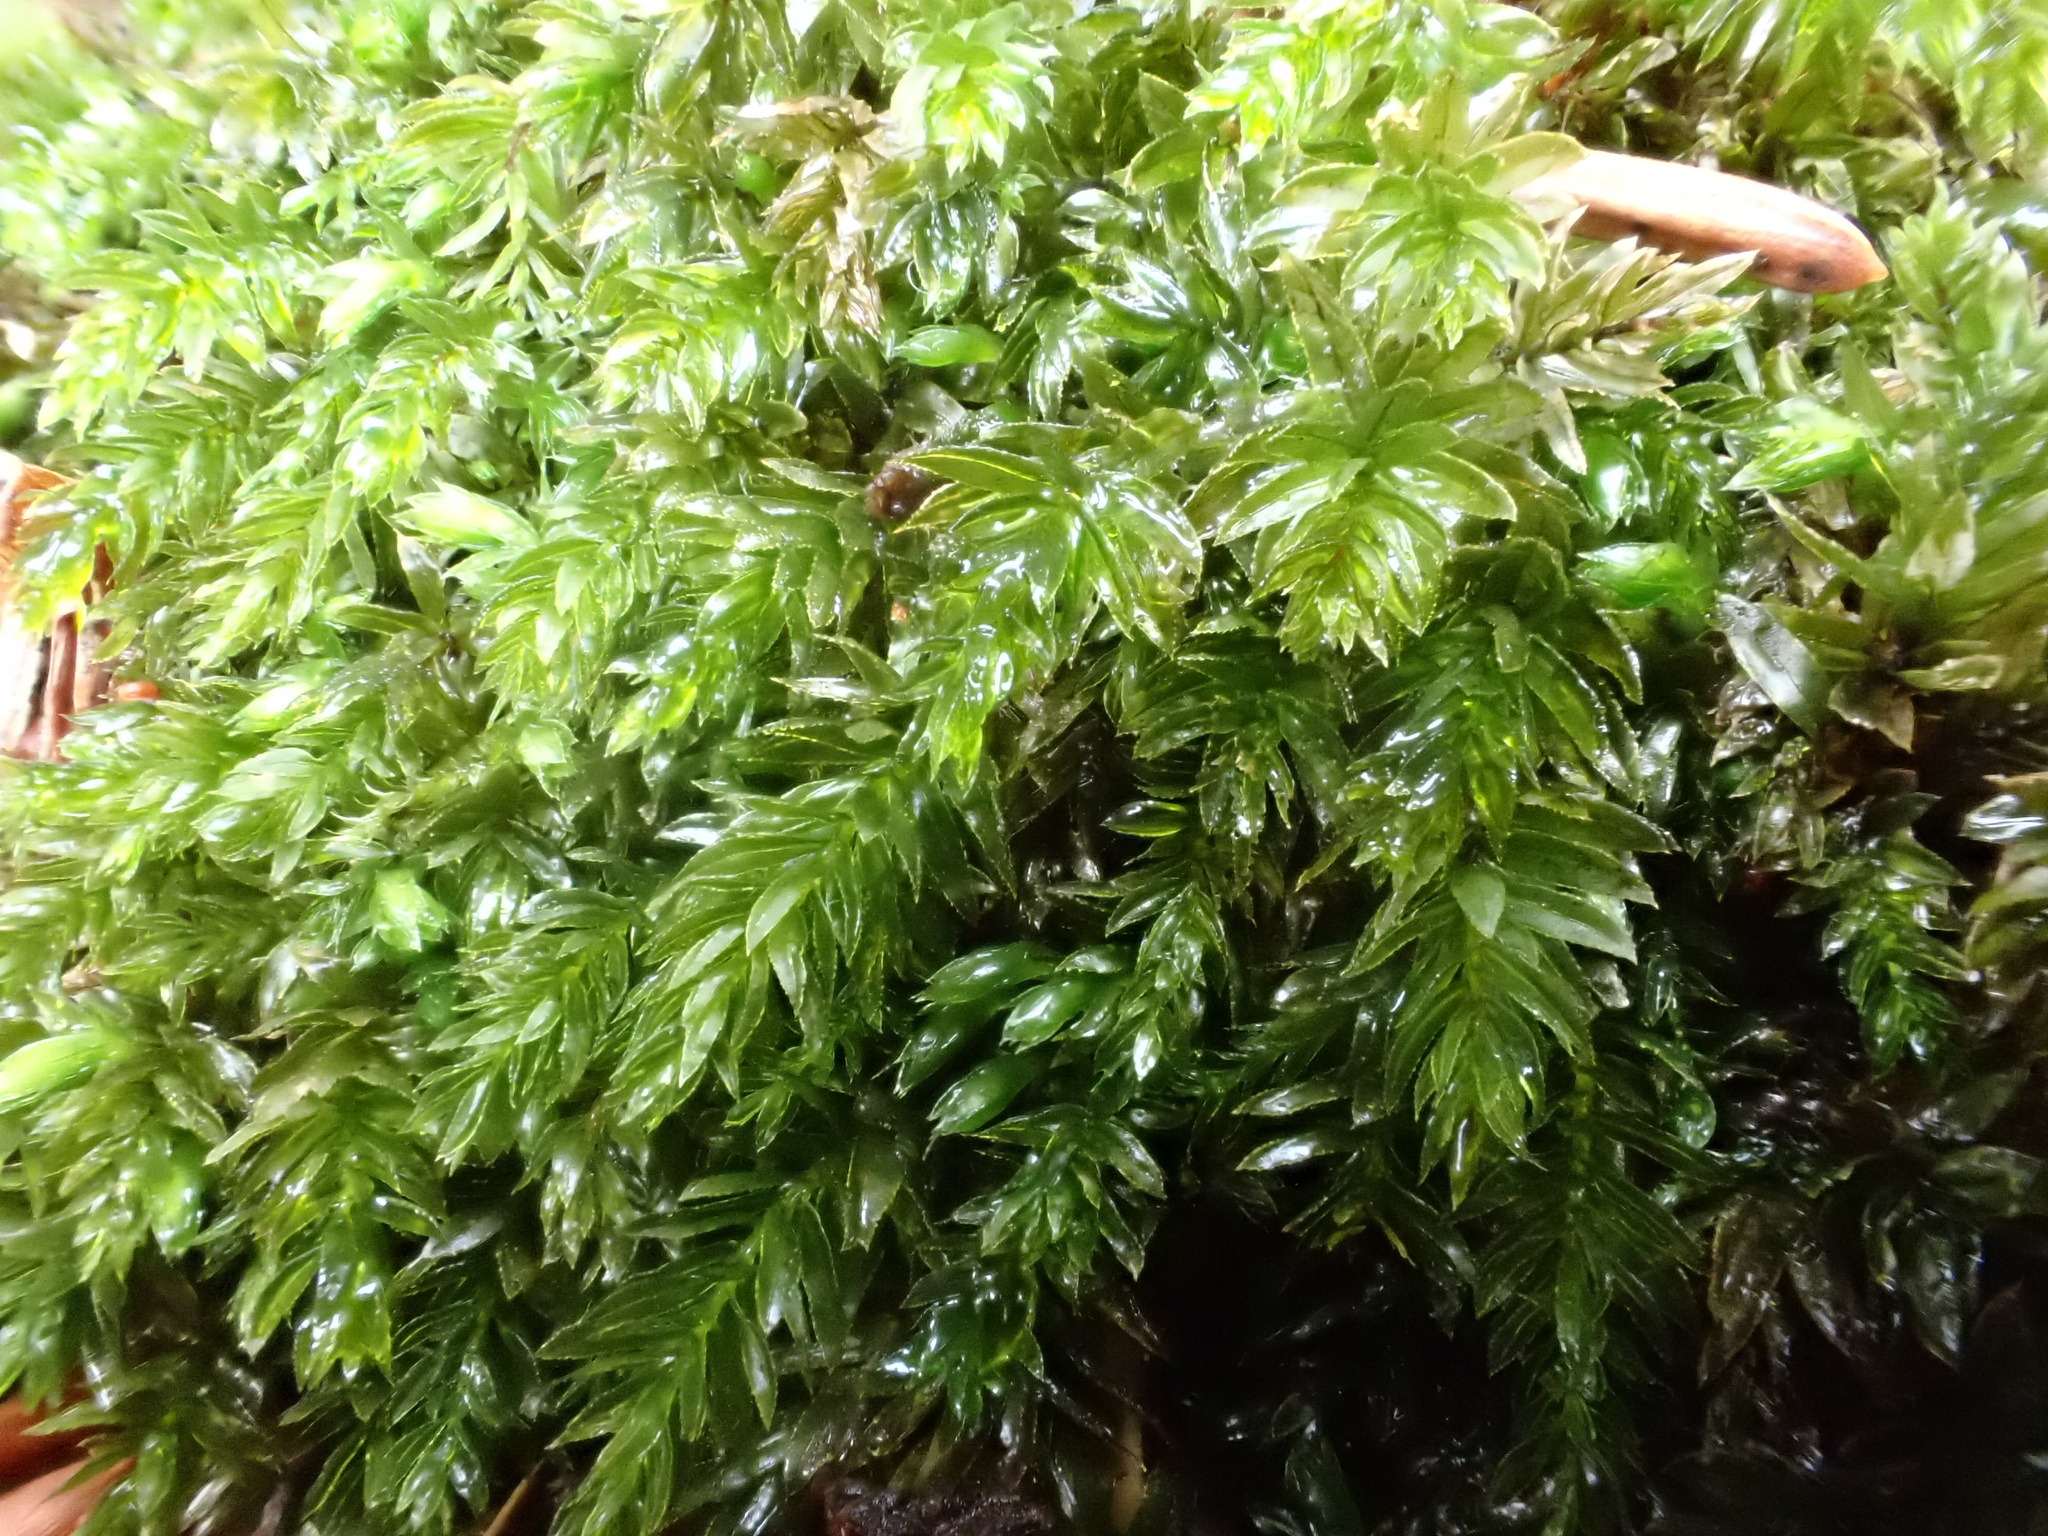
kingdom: Plantae
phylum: Bryophyta
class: Bryopsida
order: Bryales
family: Mniaceae
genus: Mnium
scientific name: Mnium hornum
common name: Swan's-neck leafy moss
